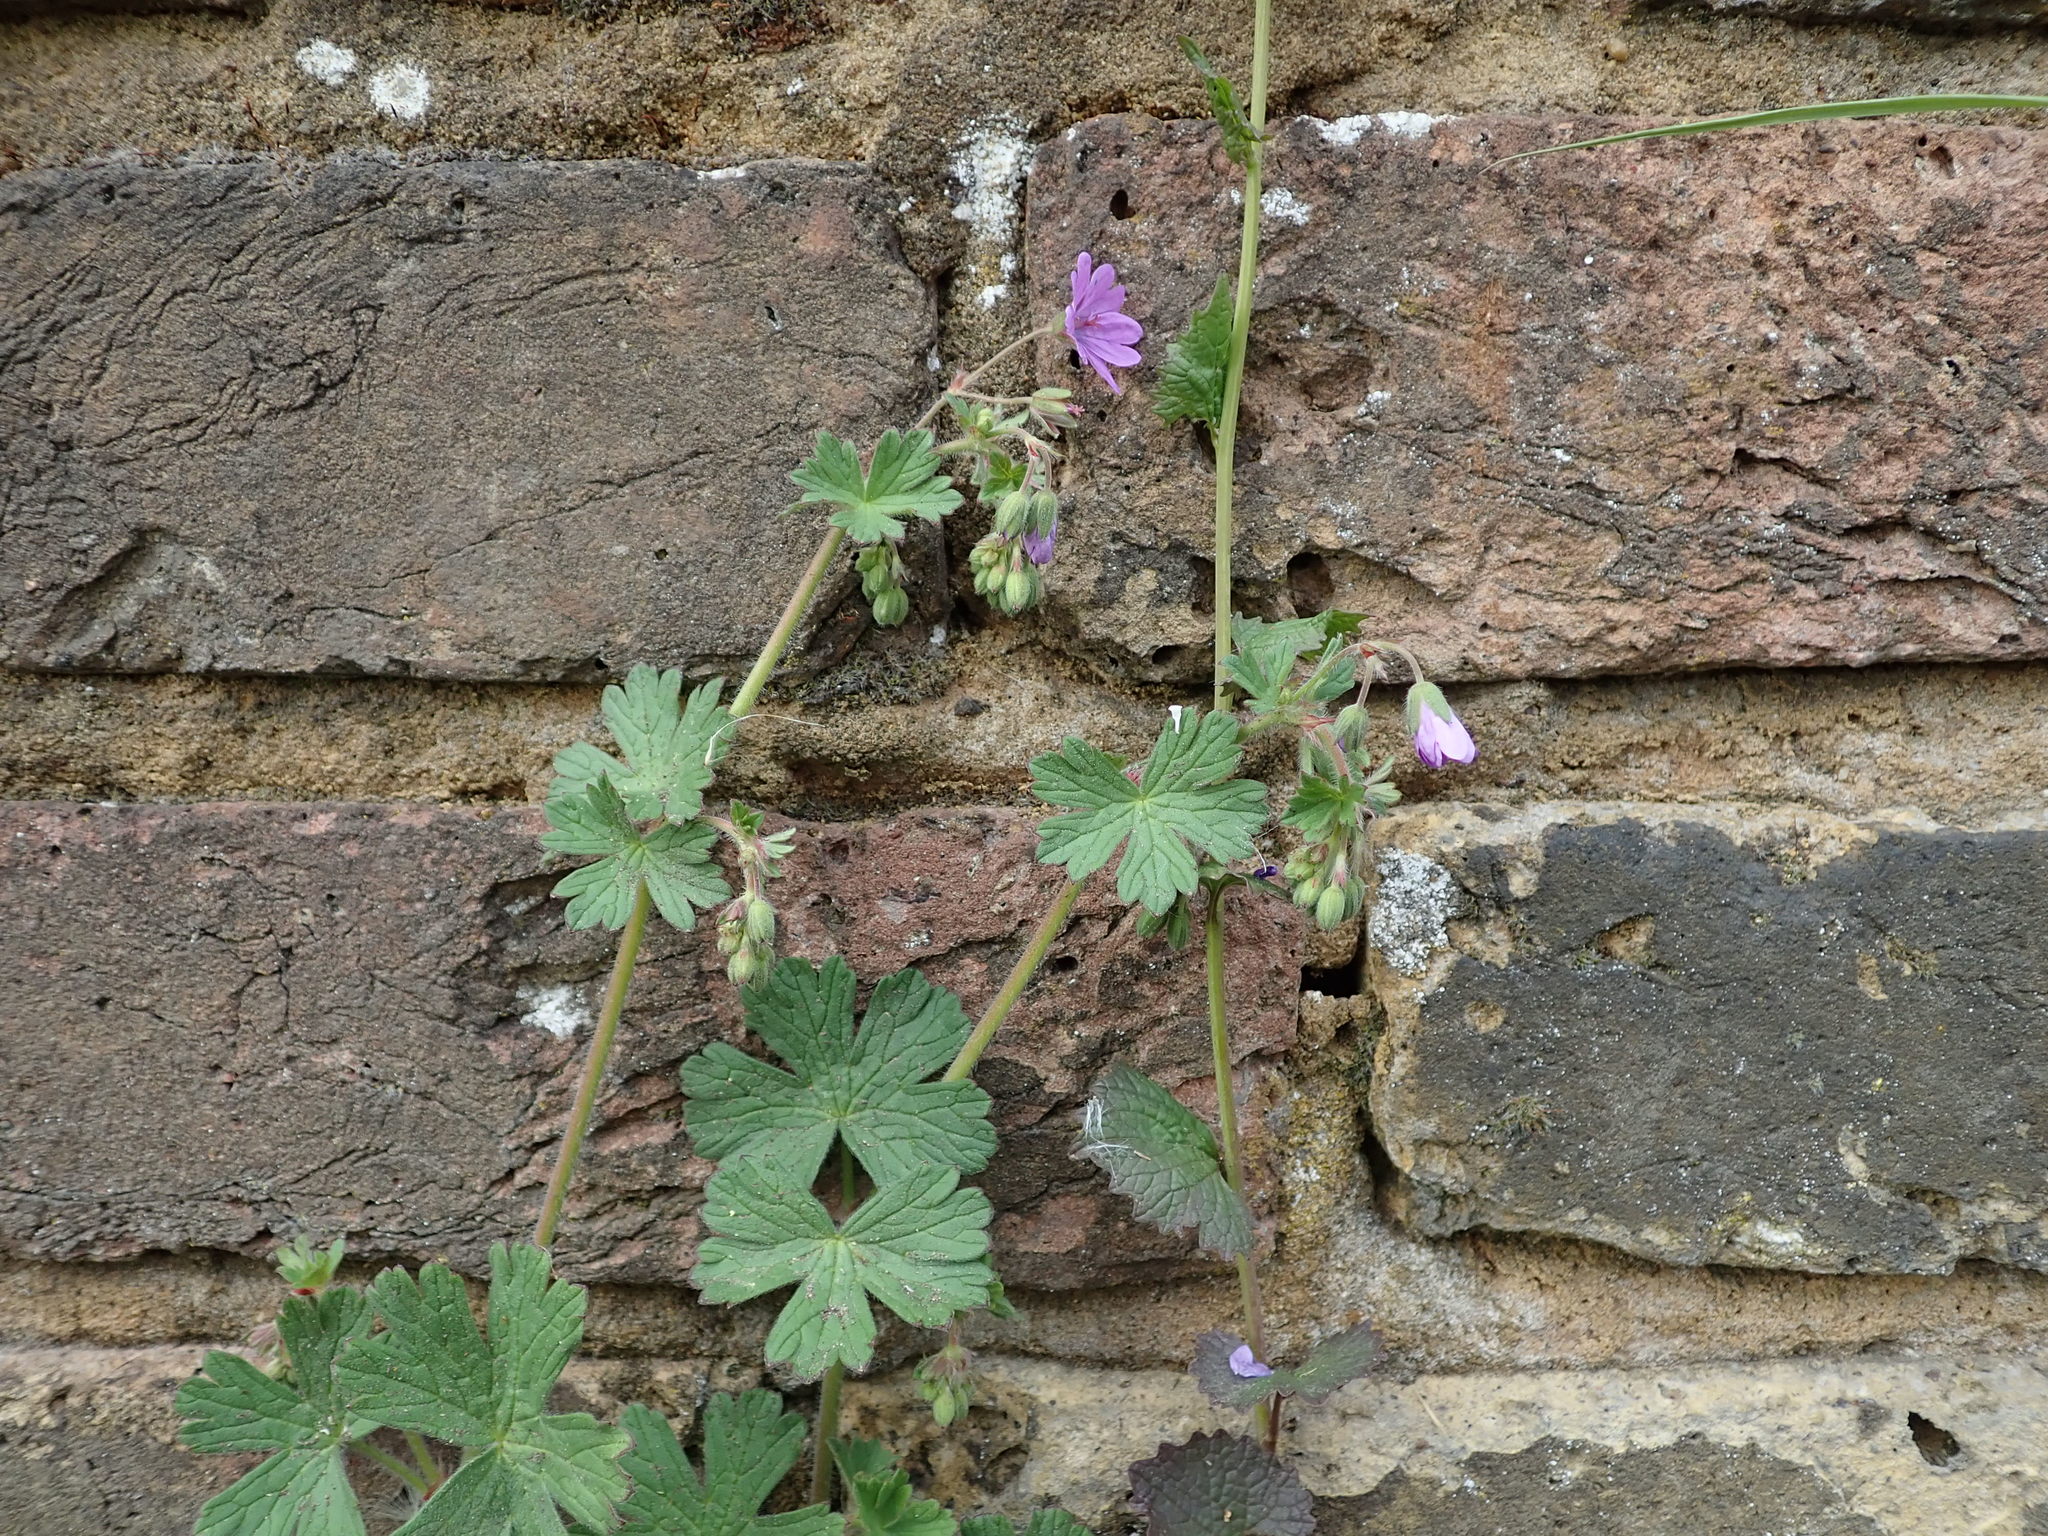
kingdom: Plantae
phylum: Tracheophyta
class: Magnoliopsida
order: Geraniales
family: Geraniaceae
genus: Geranium
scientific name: Geranium pyrenaicum
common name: Hedgerow crane's-bill
